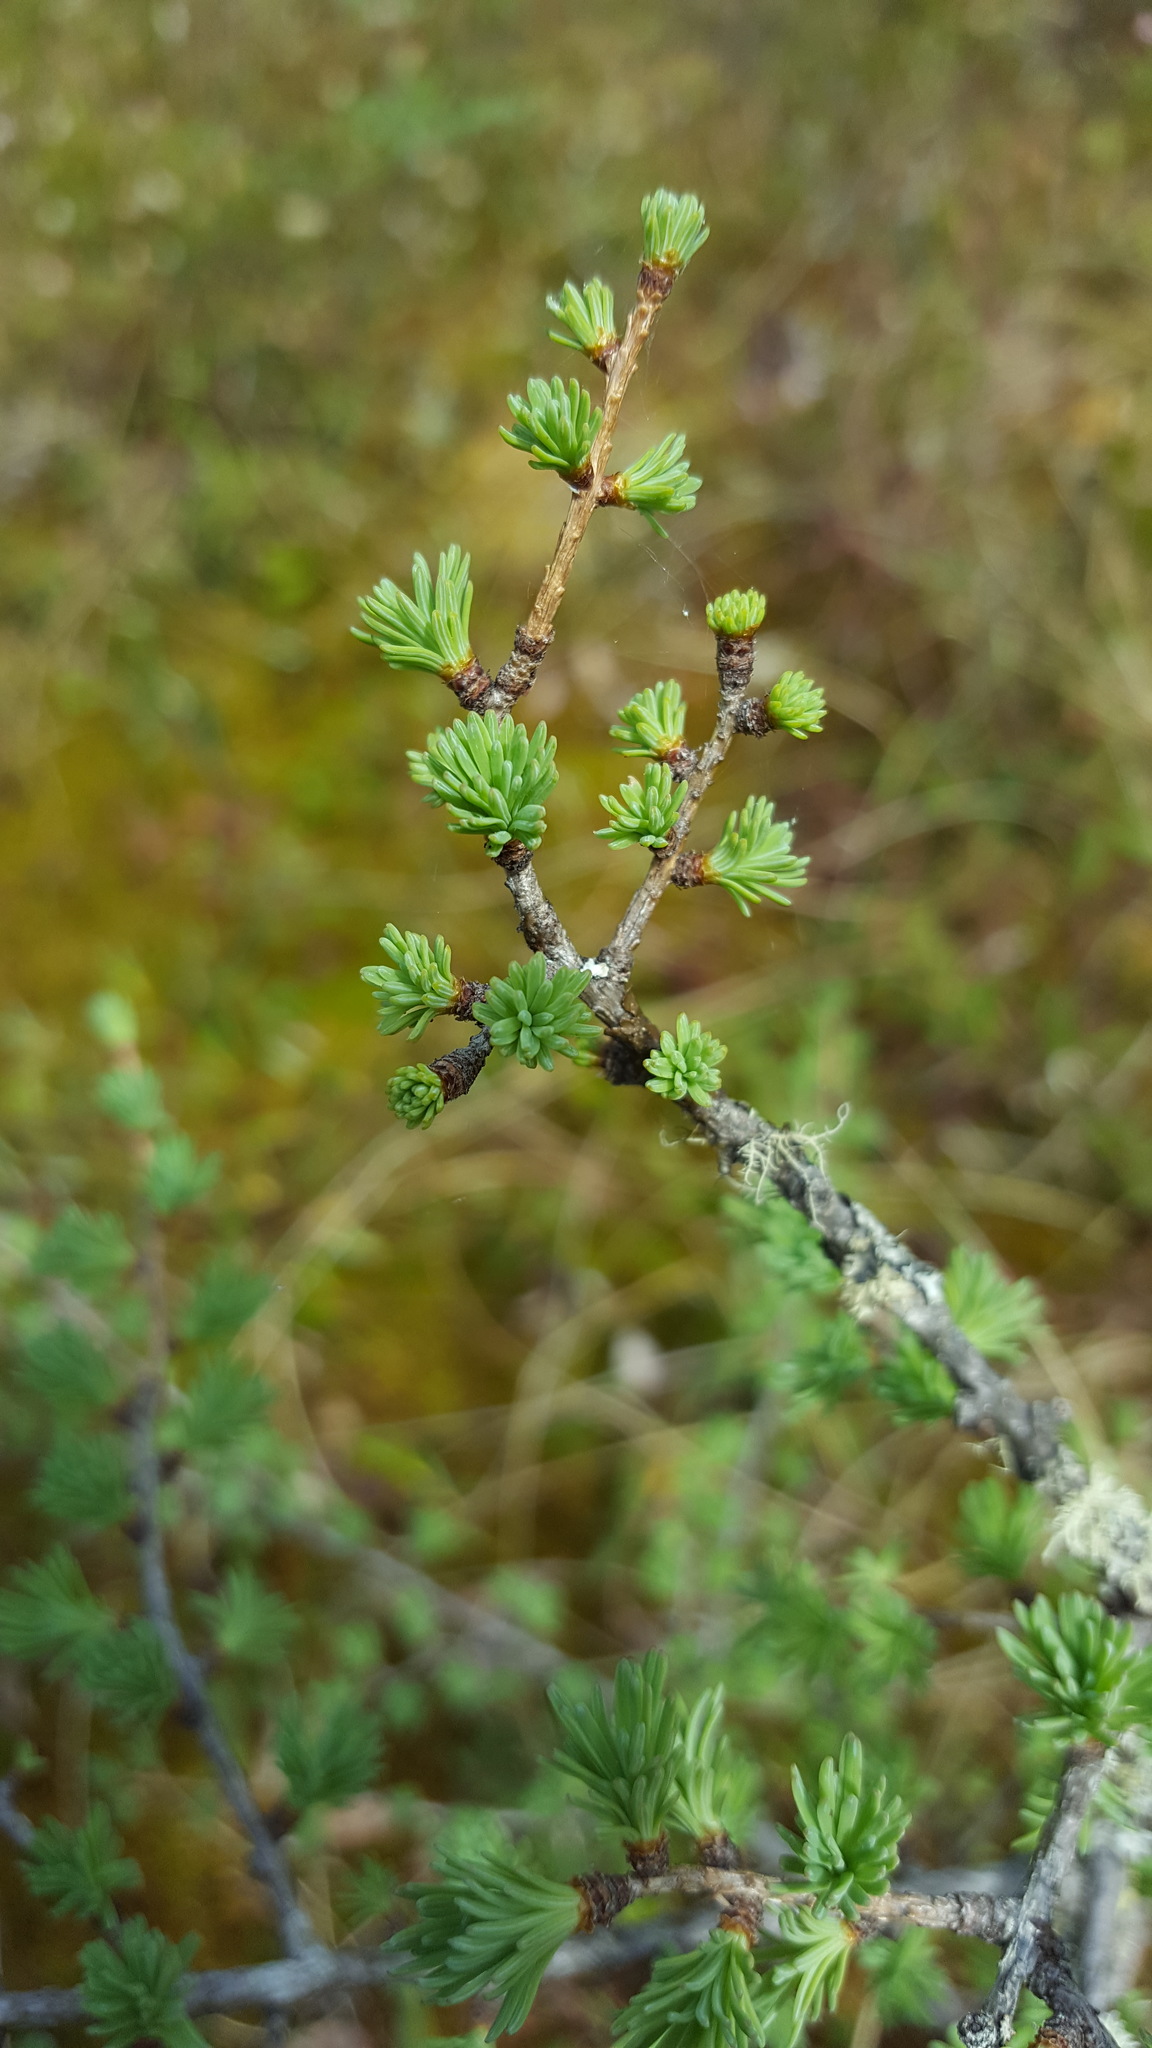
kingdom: Plantae
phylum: Tracheophyta
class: Pinopsida
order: Pinales
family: Pinaceae
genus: Larix
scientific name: Larix laricina
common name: American larch
